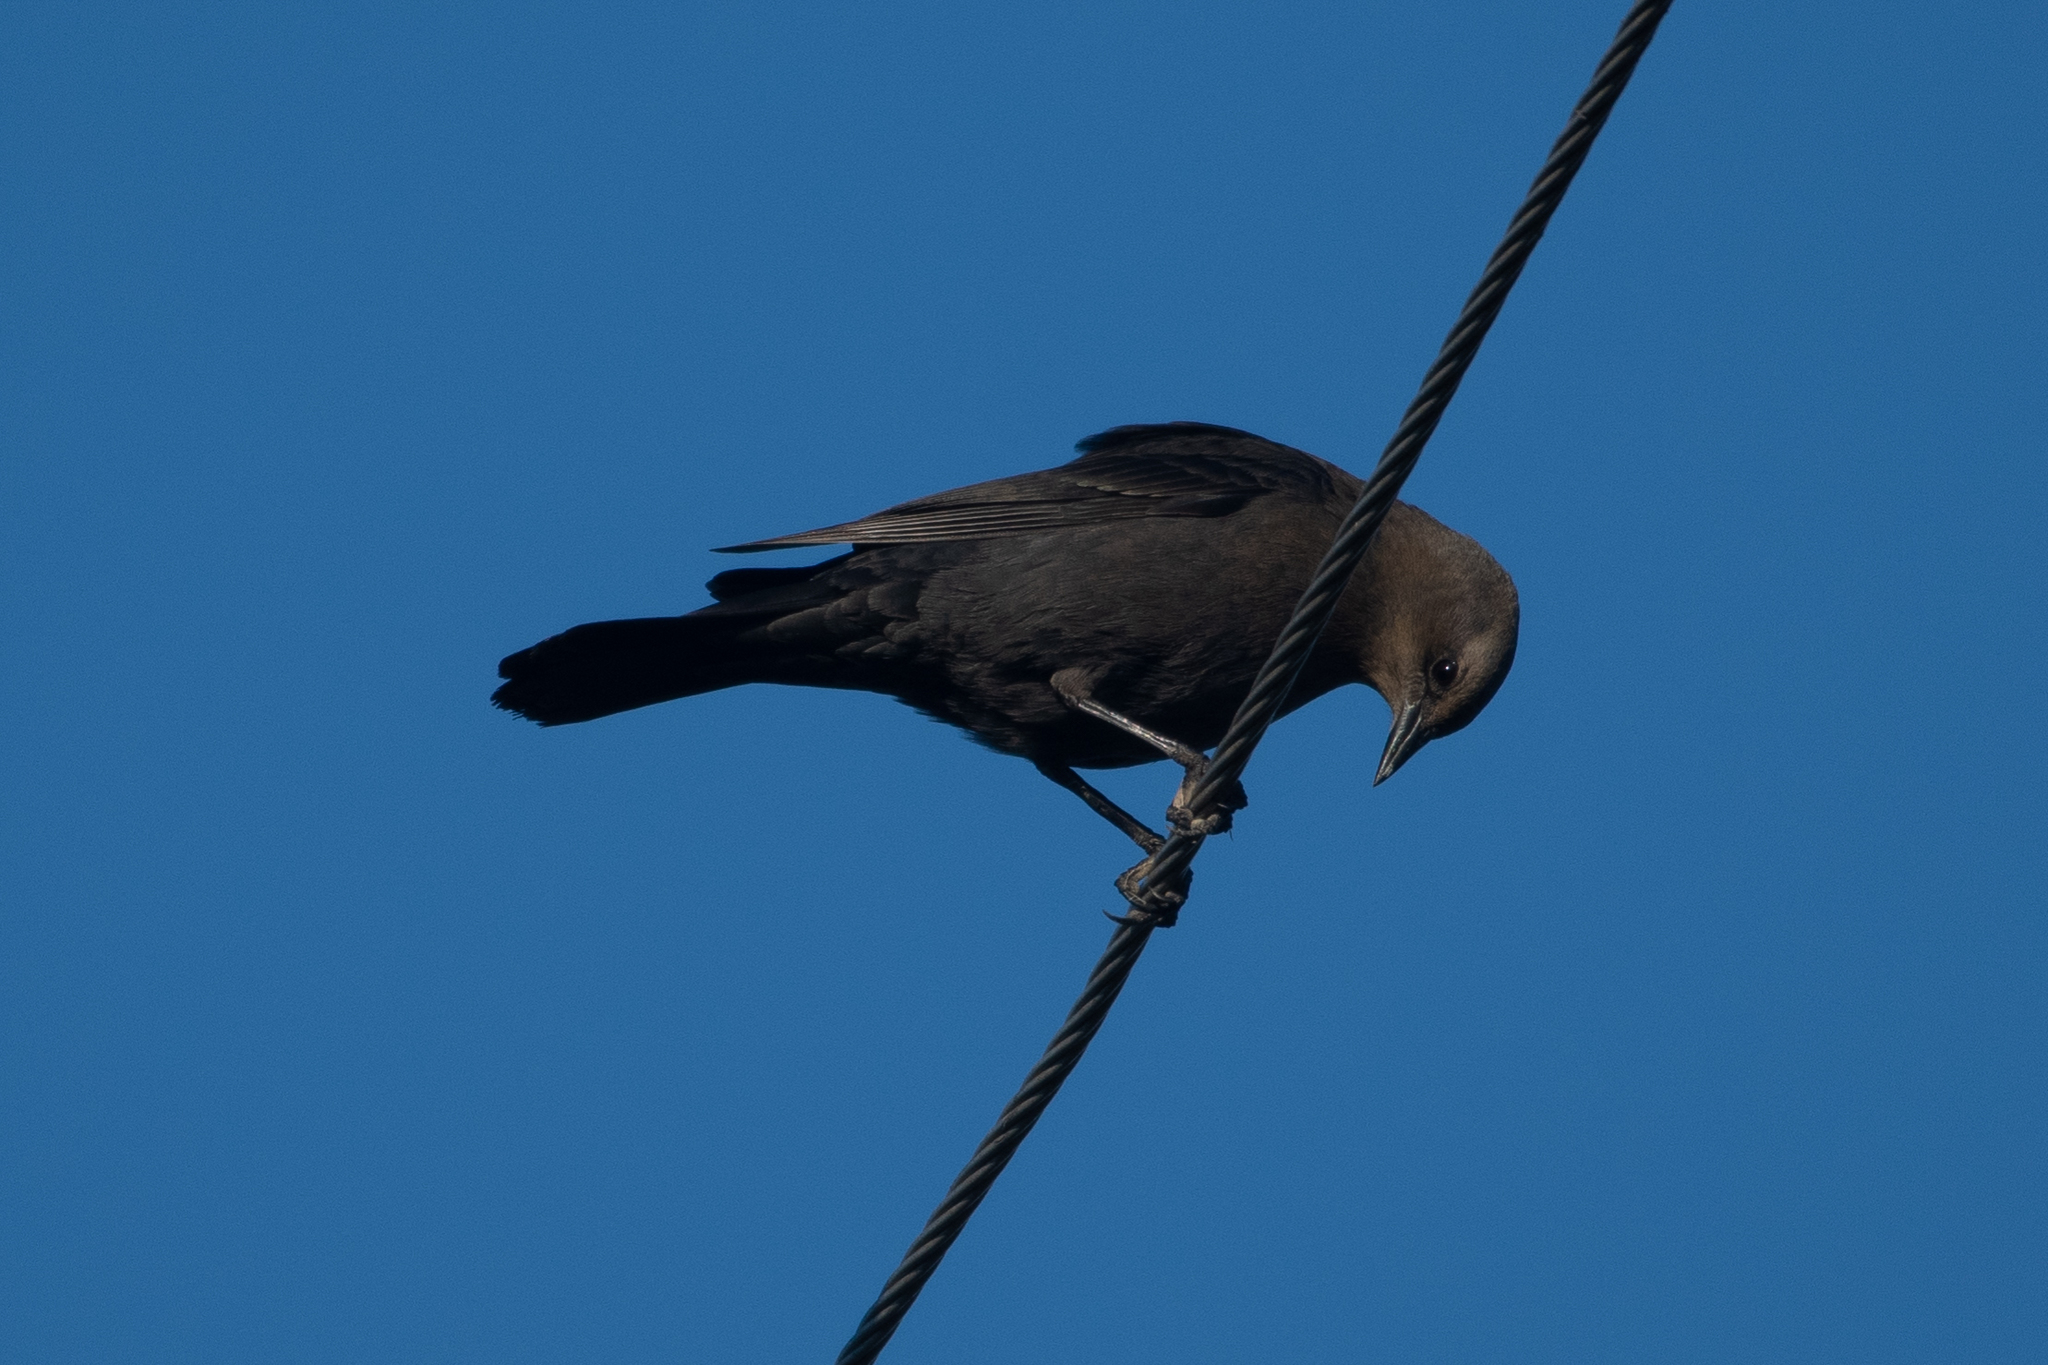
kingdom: Animalia
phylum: Chordata
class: Aves
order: Passeriformes
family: Icteridae
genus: Euphagus
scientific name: Euphagus cyanocephalus
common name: Brewer's blackbird
